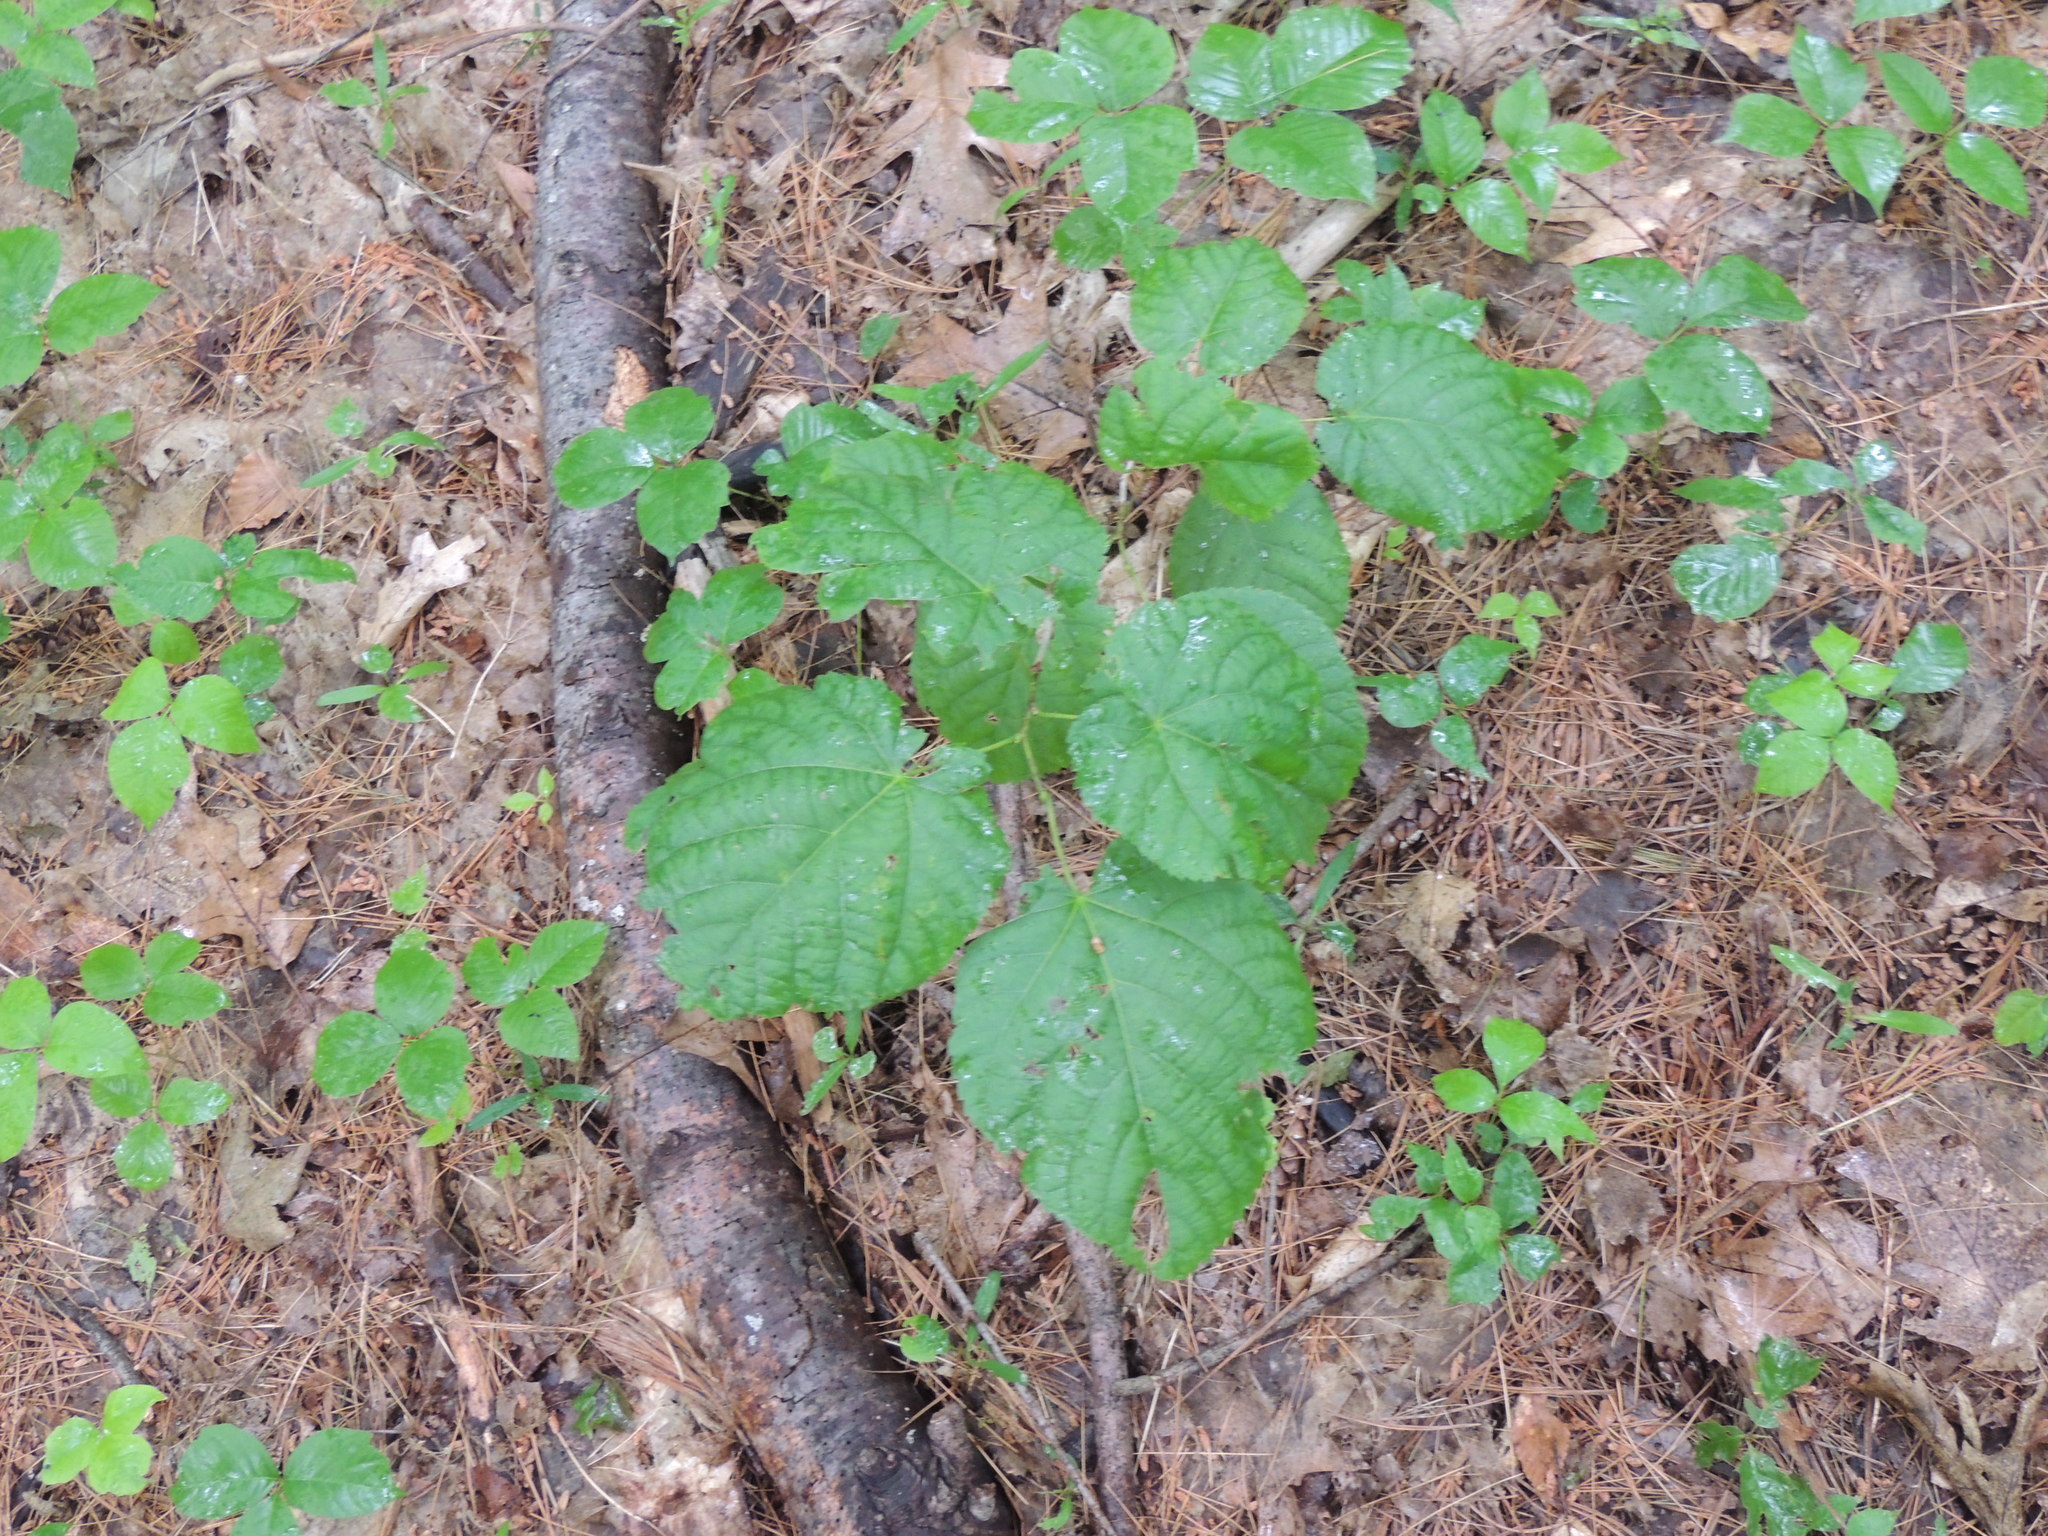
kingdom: Plantae
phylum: Tracheophyta
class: Magnoliopsida
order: Malvales
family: Malvaceae
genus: Tilia
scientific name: Tilia americana
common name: Basswood
